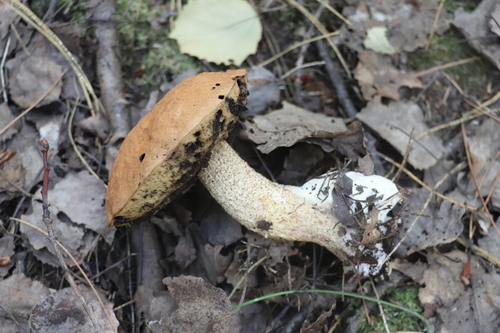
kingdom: Fungi
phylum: Basidiomycota
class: Agaricomycetes
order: Boletales
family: Boletaceae
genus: Leccinum
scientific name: Leccinum
